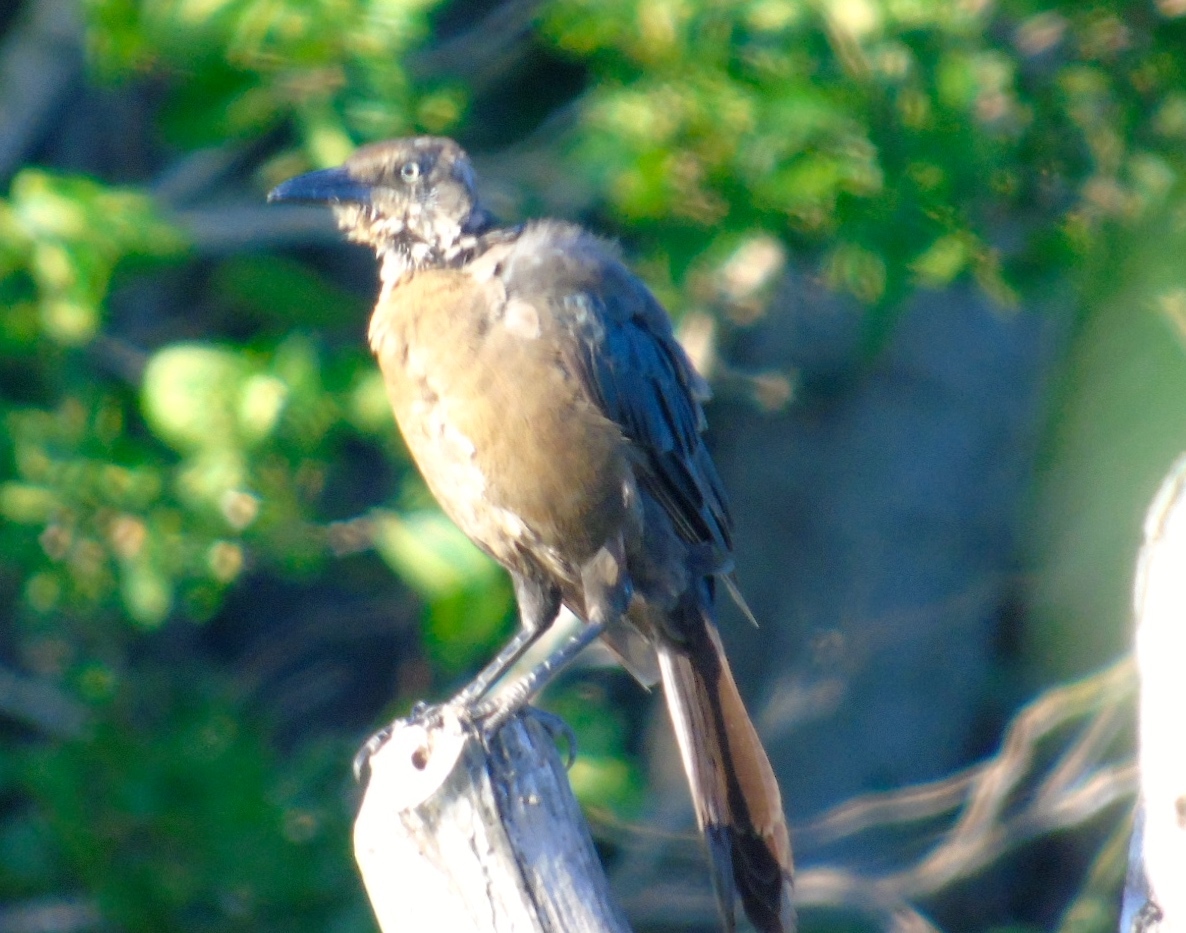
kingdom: Animalia
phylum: Chordata
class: Aves
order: Passeriformes
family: Icteridae
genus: Quiscalus
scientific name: Quiscalus mexicanus
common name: Great-tailed grackle
